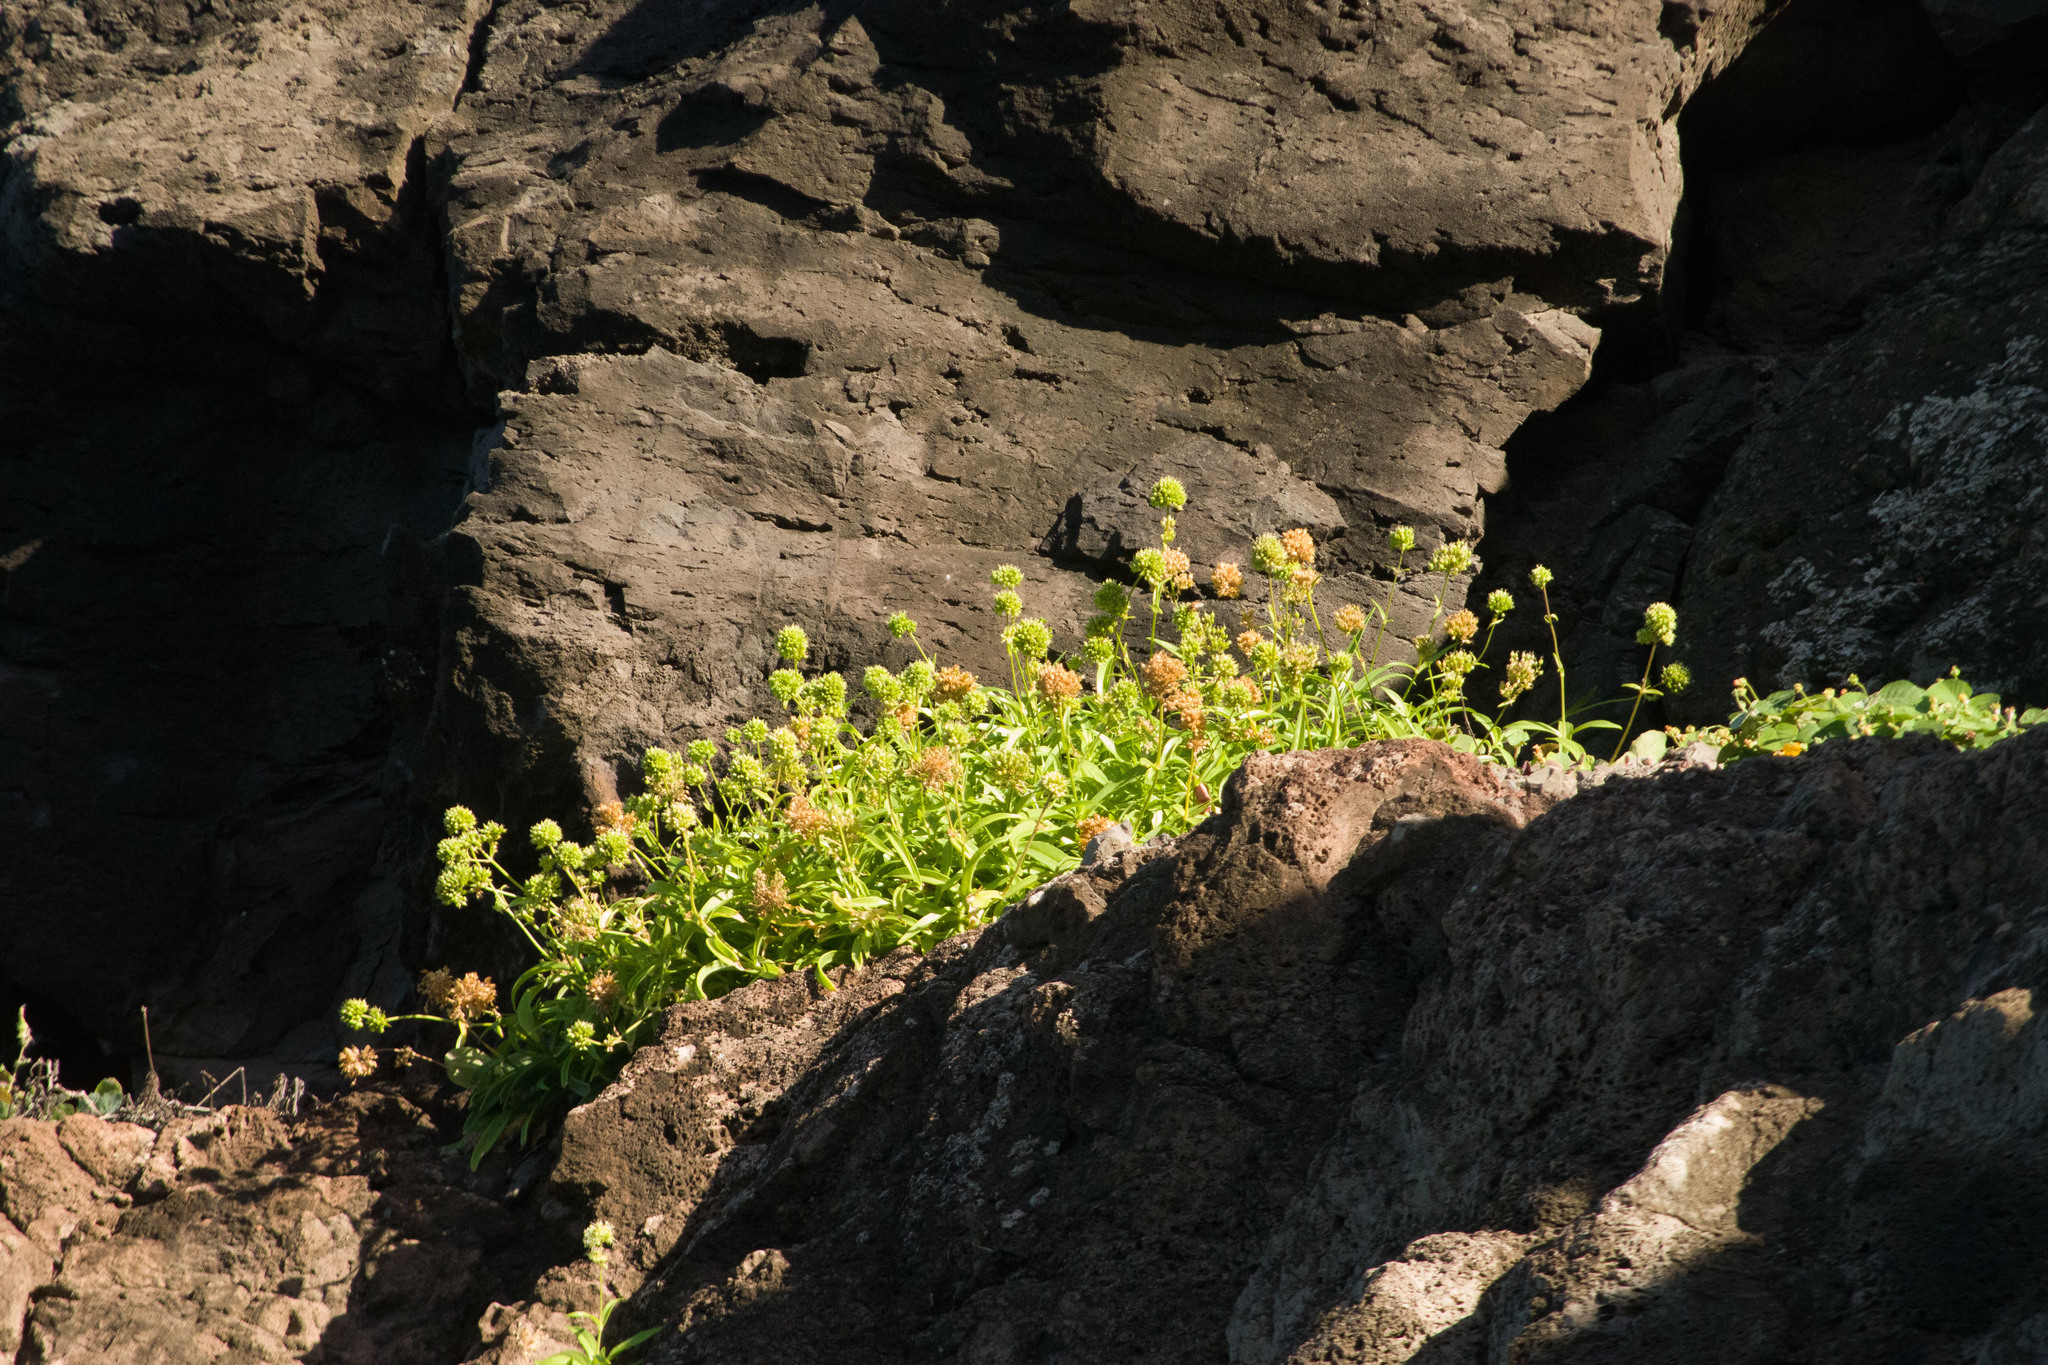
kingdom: Plantae
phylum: Tracheophyta
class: Magnoliopsida
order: Caryophyllales
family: Caryophyllaceae
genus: Schiedea
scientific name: Schiedea globosa
